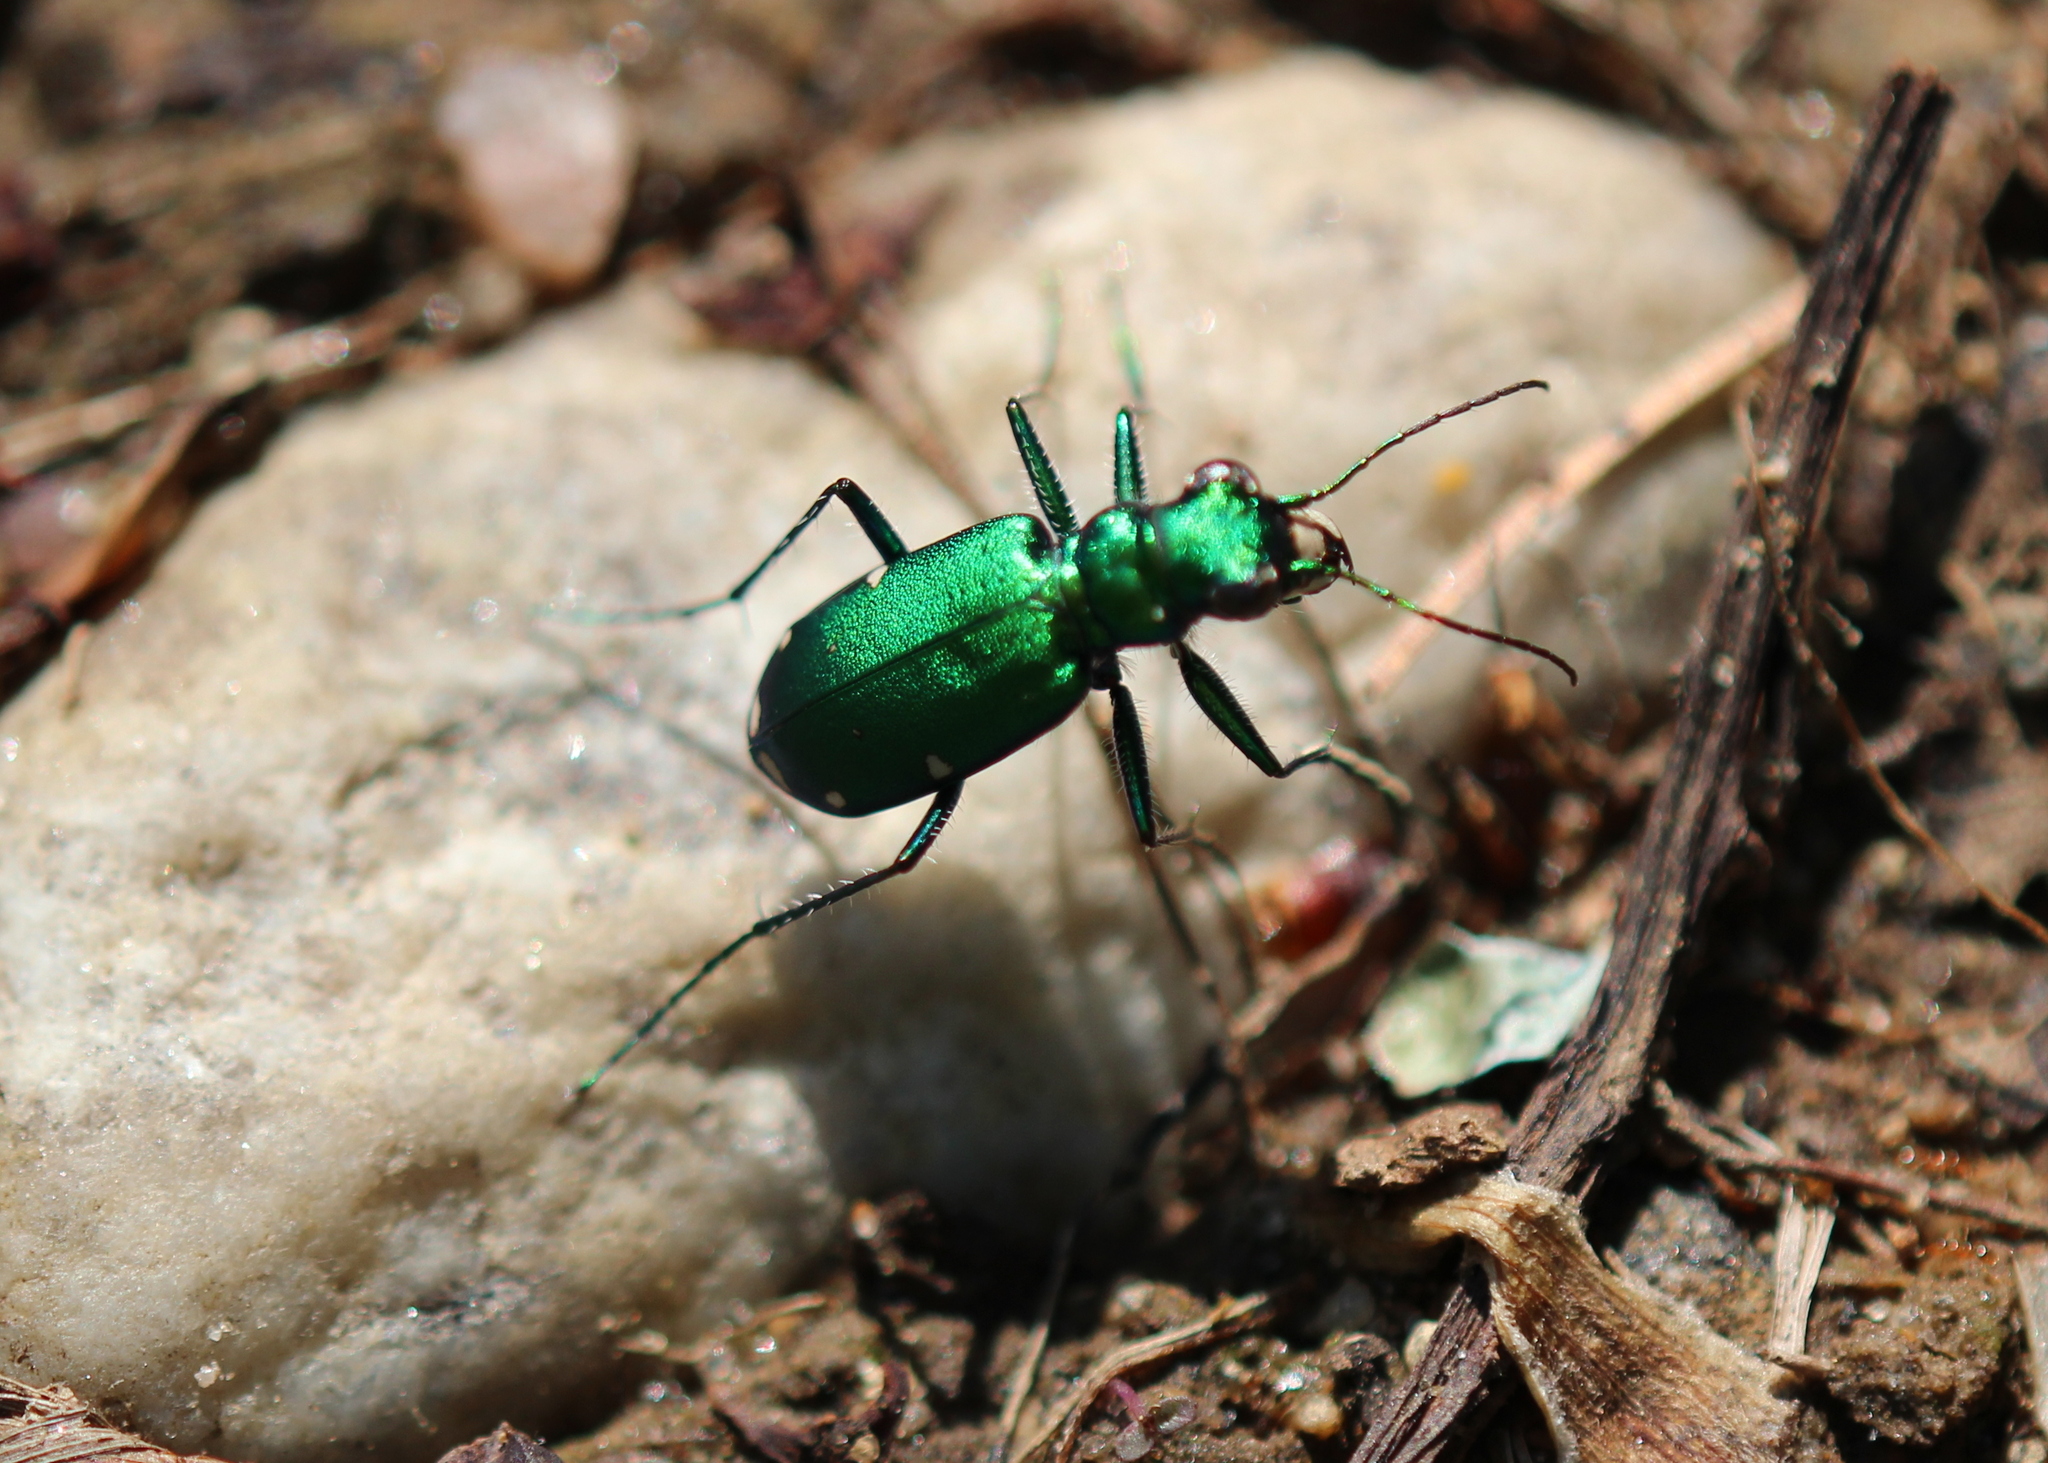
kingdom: Animalia
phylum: Arthropoda
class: Insecta
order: Coleoptera
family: Carabidae
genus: Cicindela
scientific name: Cicindela sexguttata
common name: Six-spotted tiger beetle
